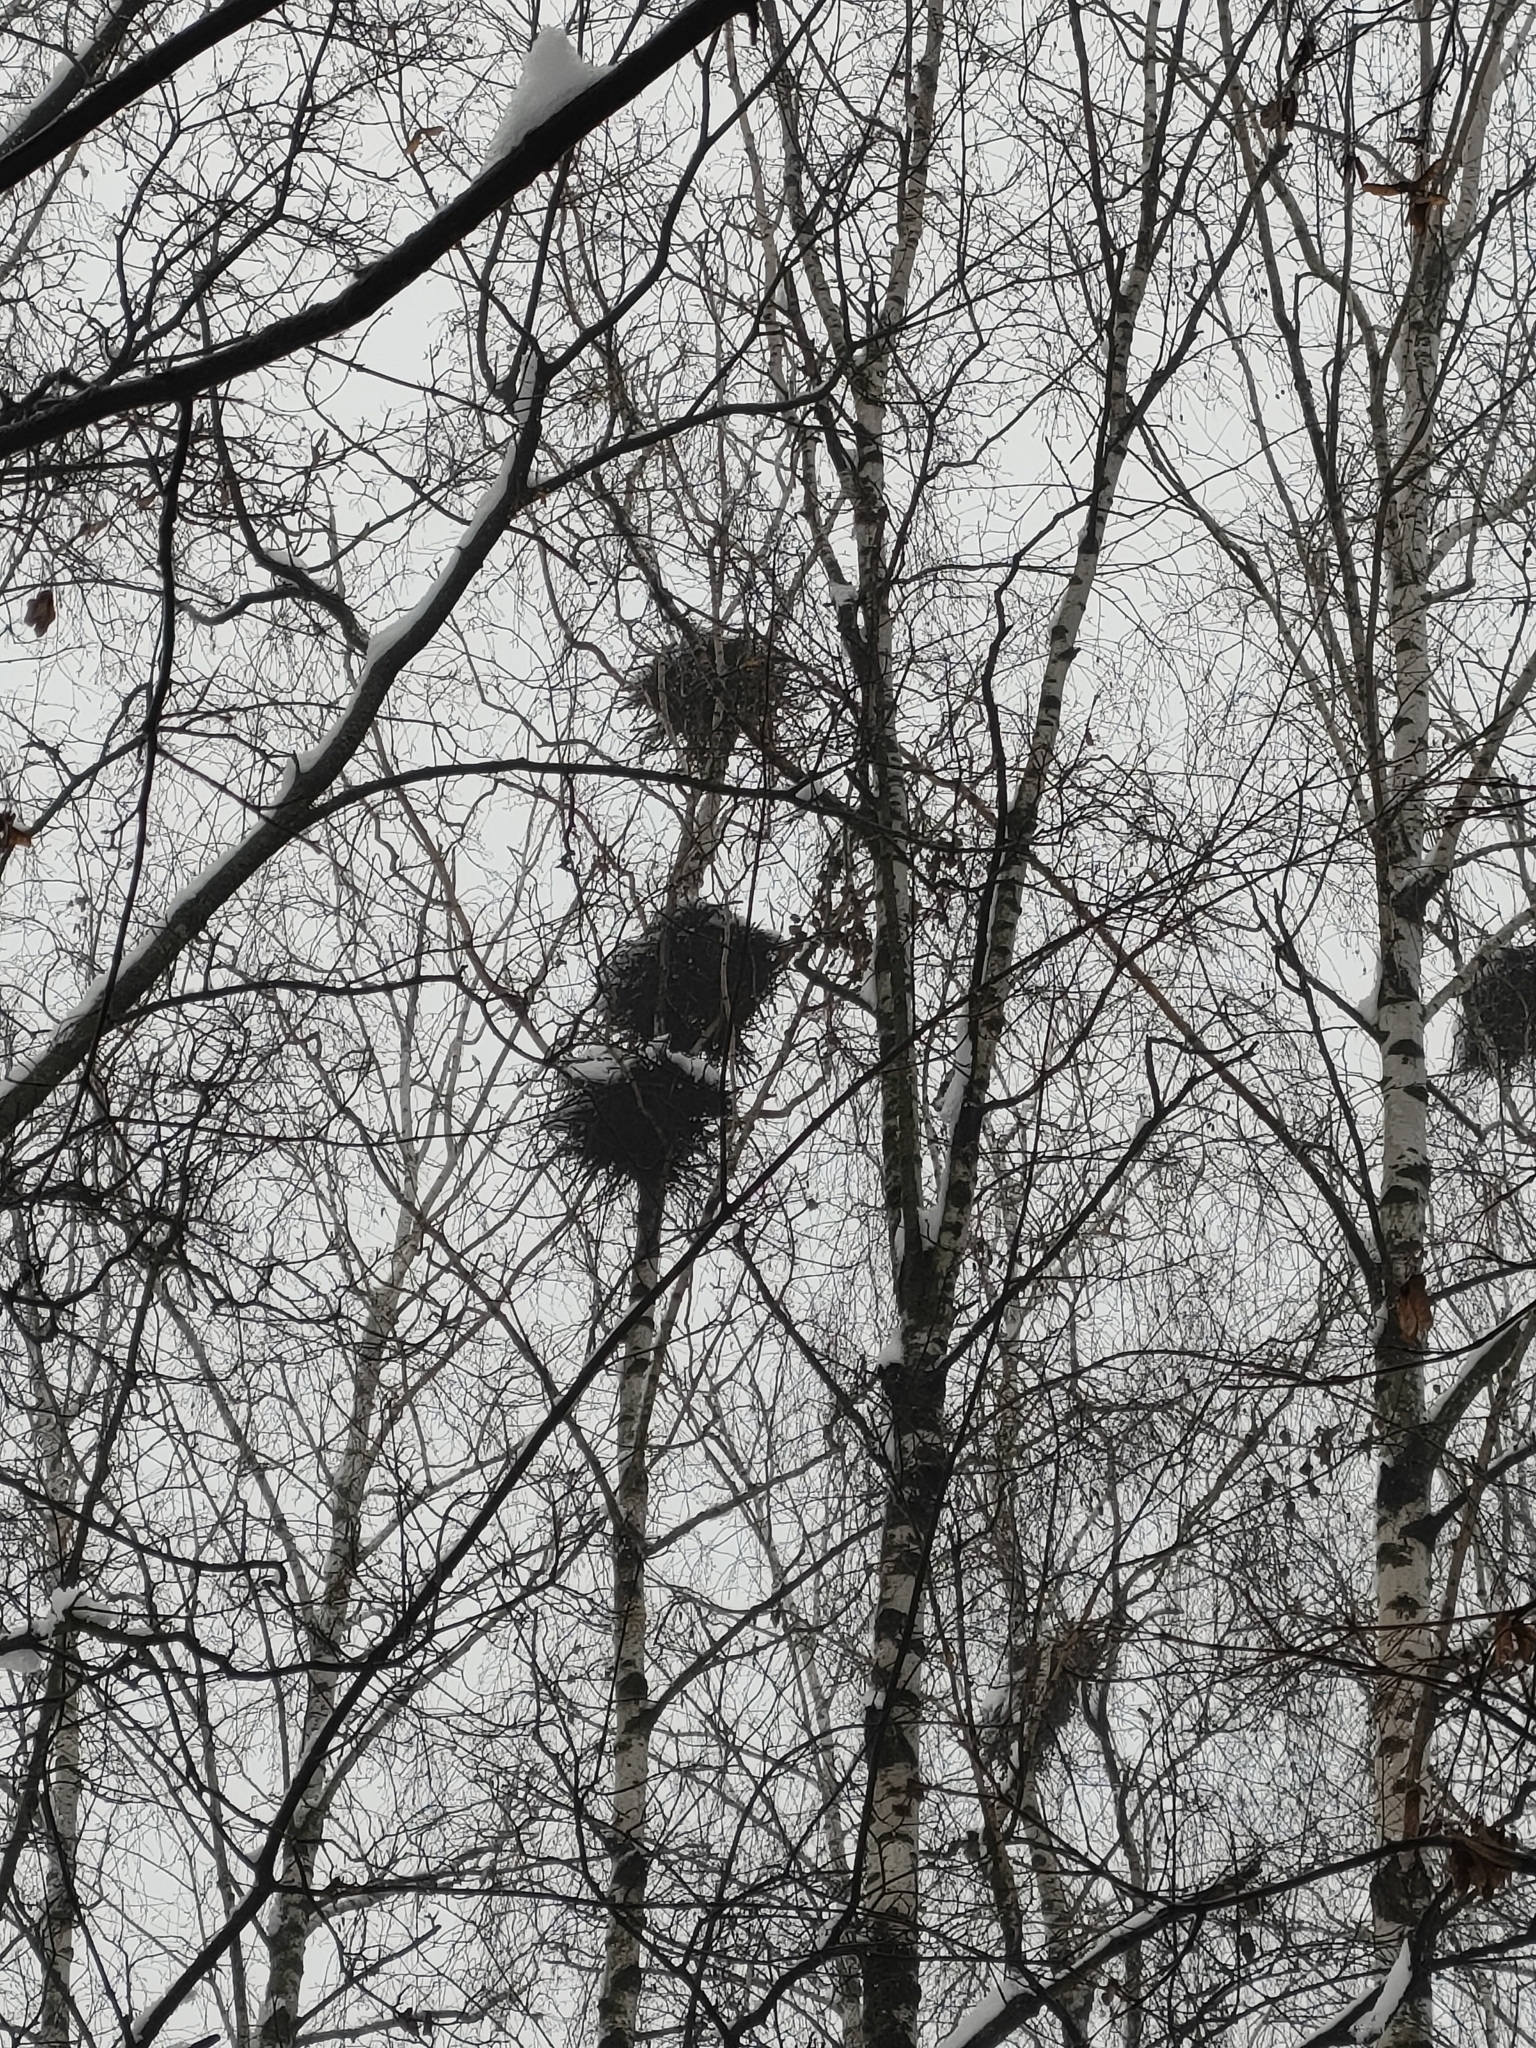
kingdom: Animalia
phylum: Chordata
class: Aves
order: Passeriformes
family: Corvidae
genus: Corvus
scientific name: Corvus frugilegus
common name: Rook
